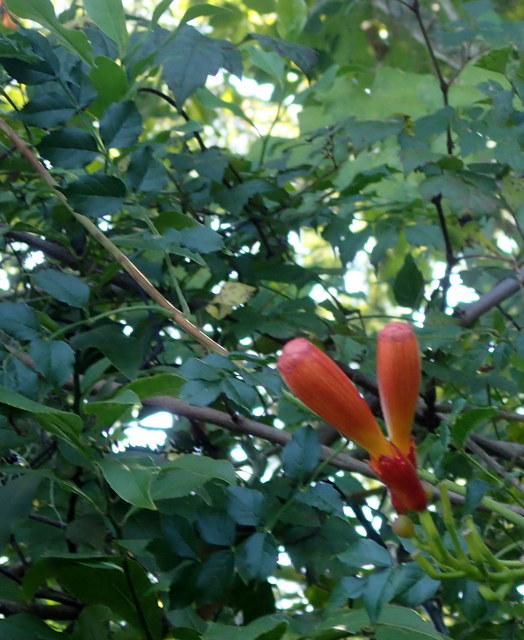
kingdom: Plantae
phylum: Tracheophyta
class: Magnoliopsida
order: Lamiales
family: Bignoniaceae
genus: Campsis
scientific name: Campsis radicans
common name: Trumpet-creeper
